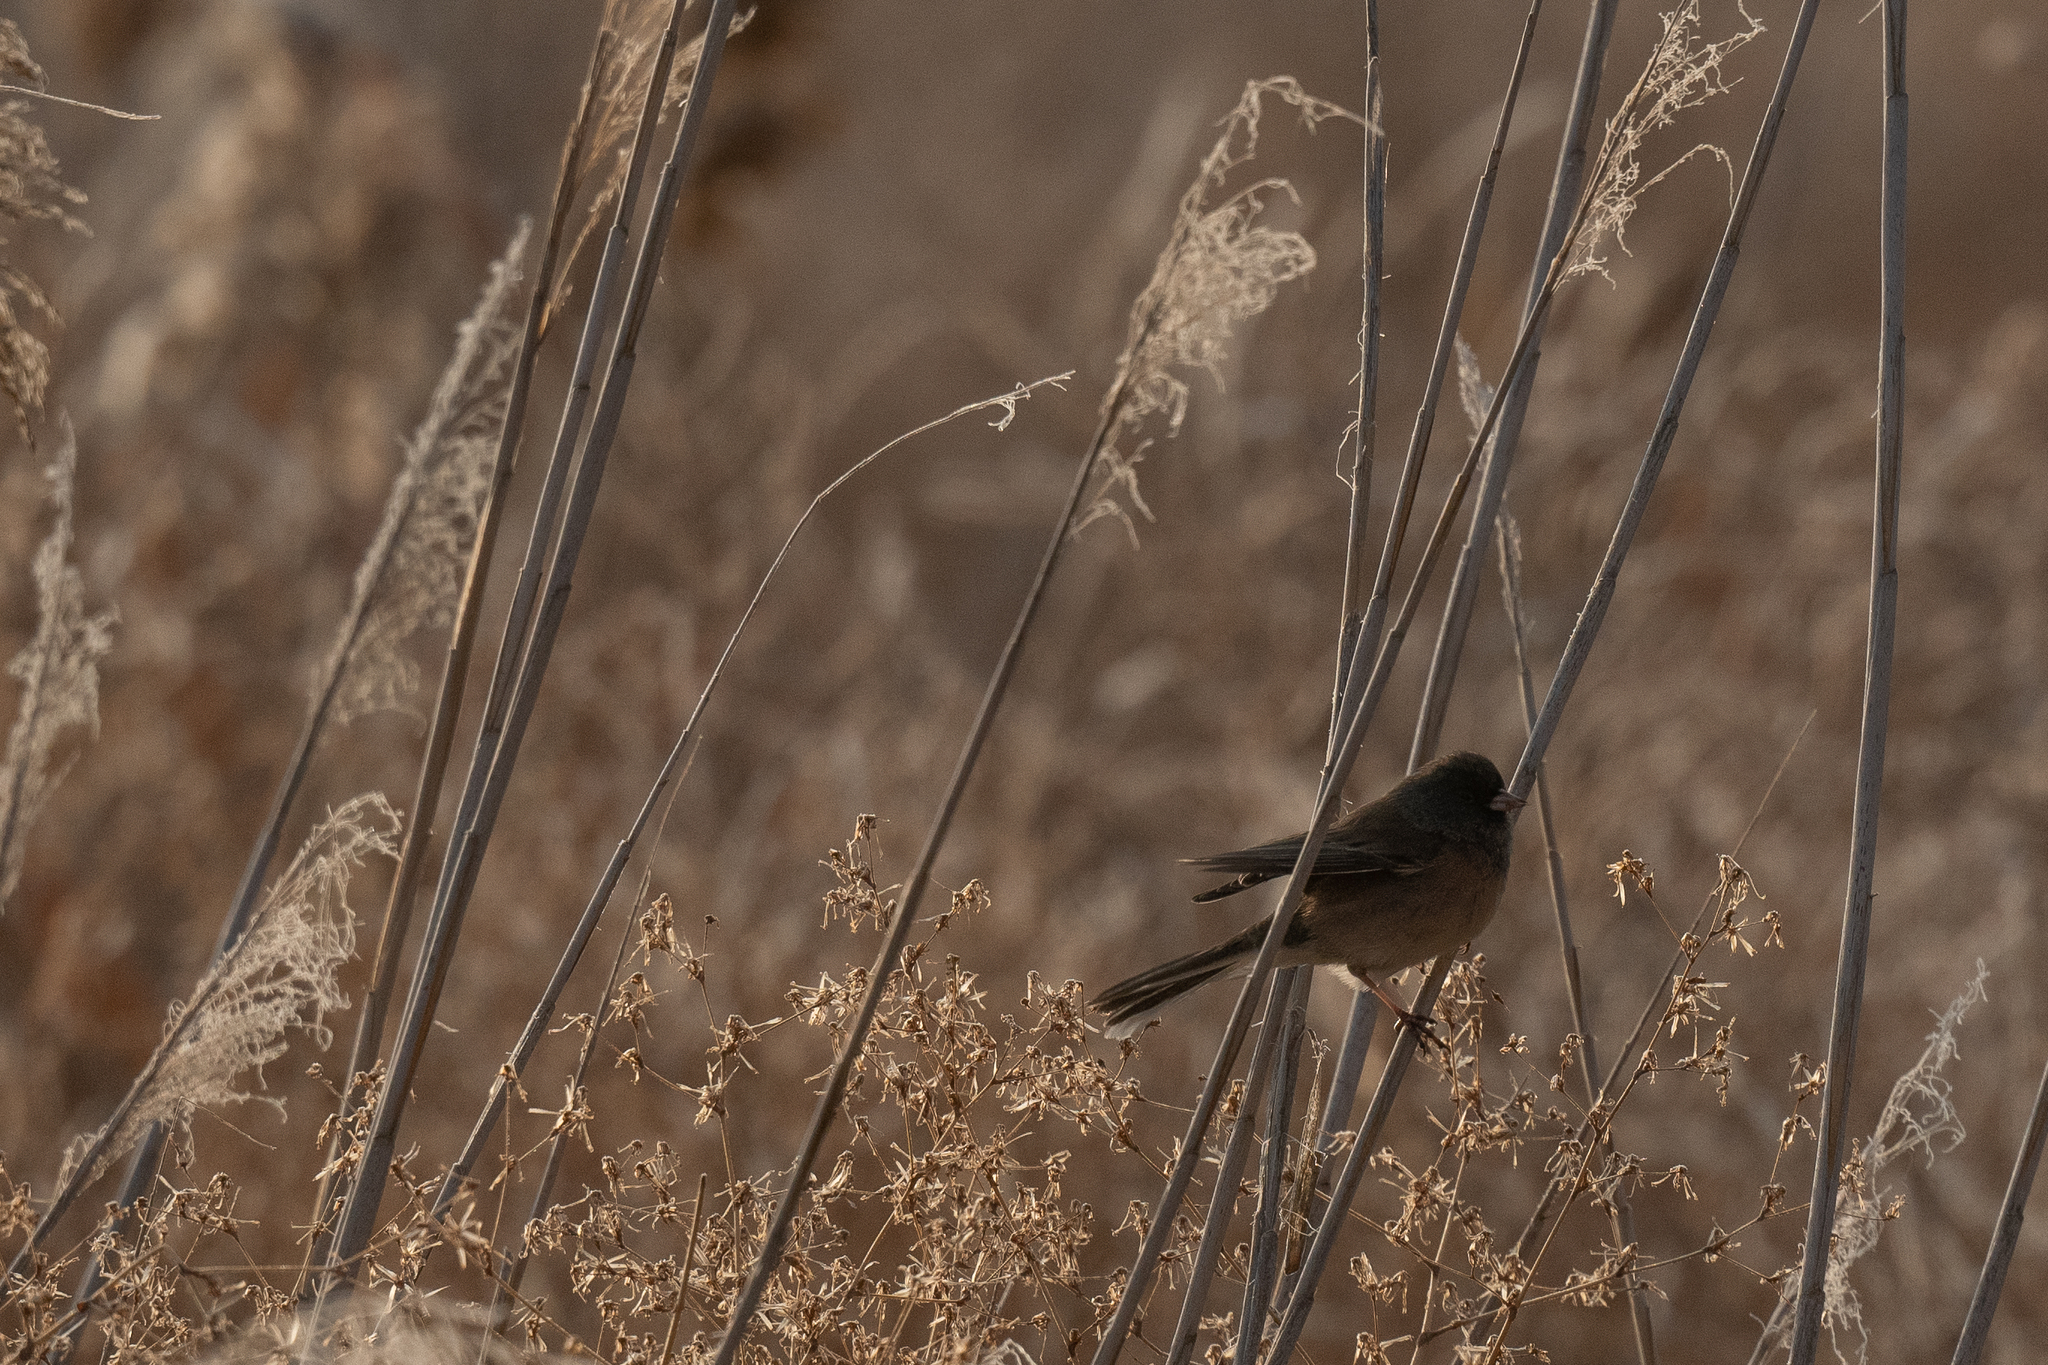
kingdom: Animalia
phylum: Chordata
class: Aves
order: Passeriformes
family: Passerellidae
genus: Junco
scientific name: Junco hyemalis
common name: Dark-eyed junco
